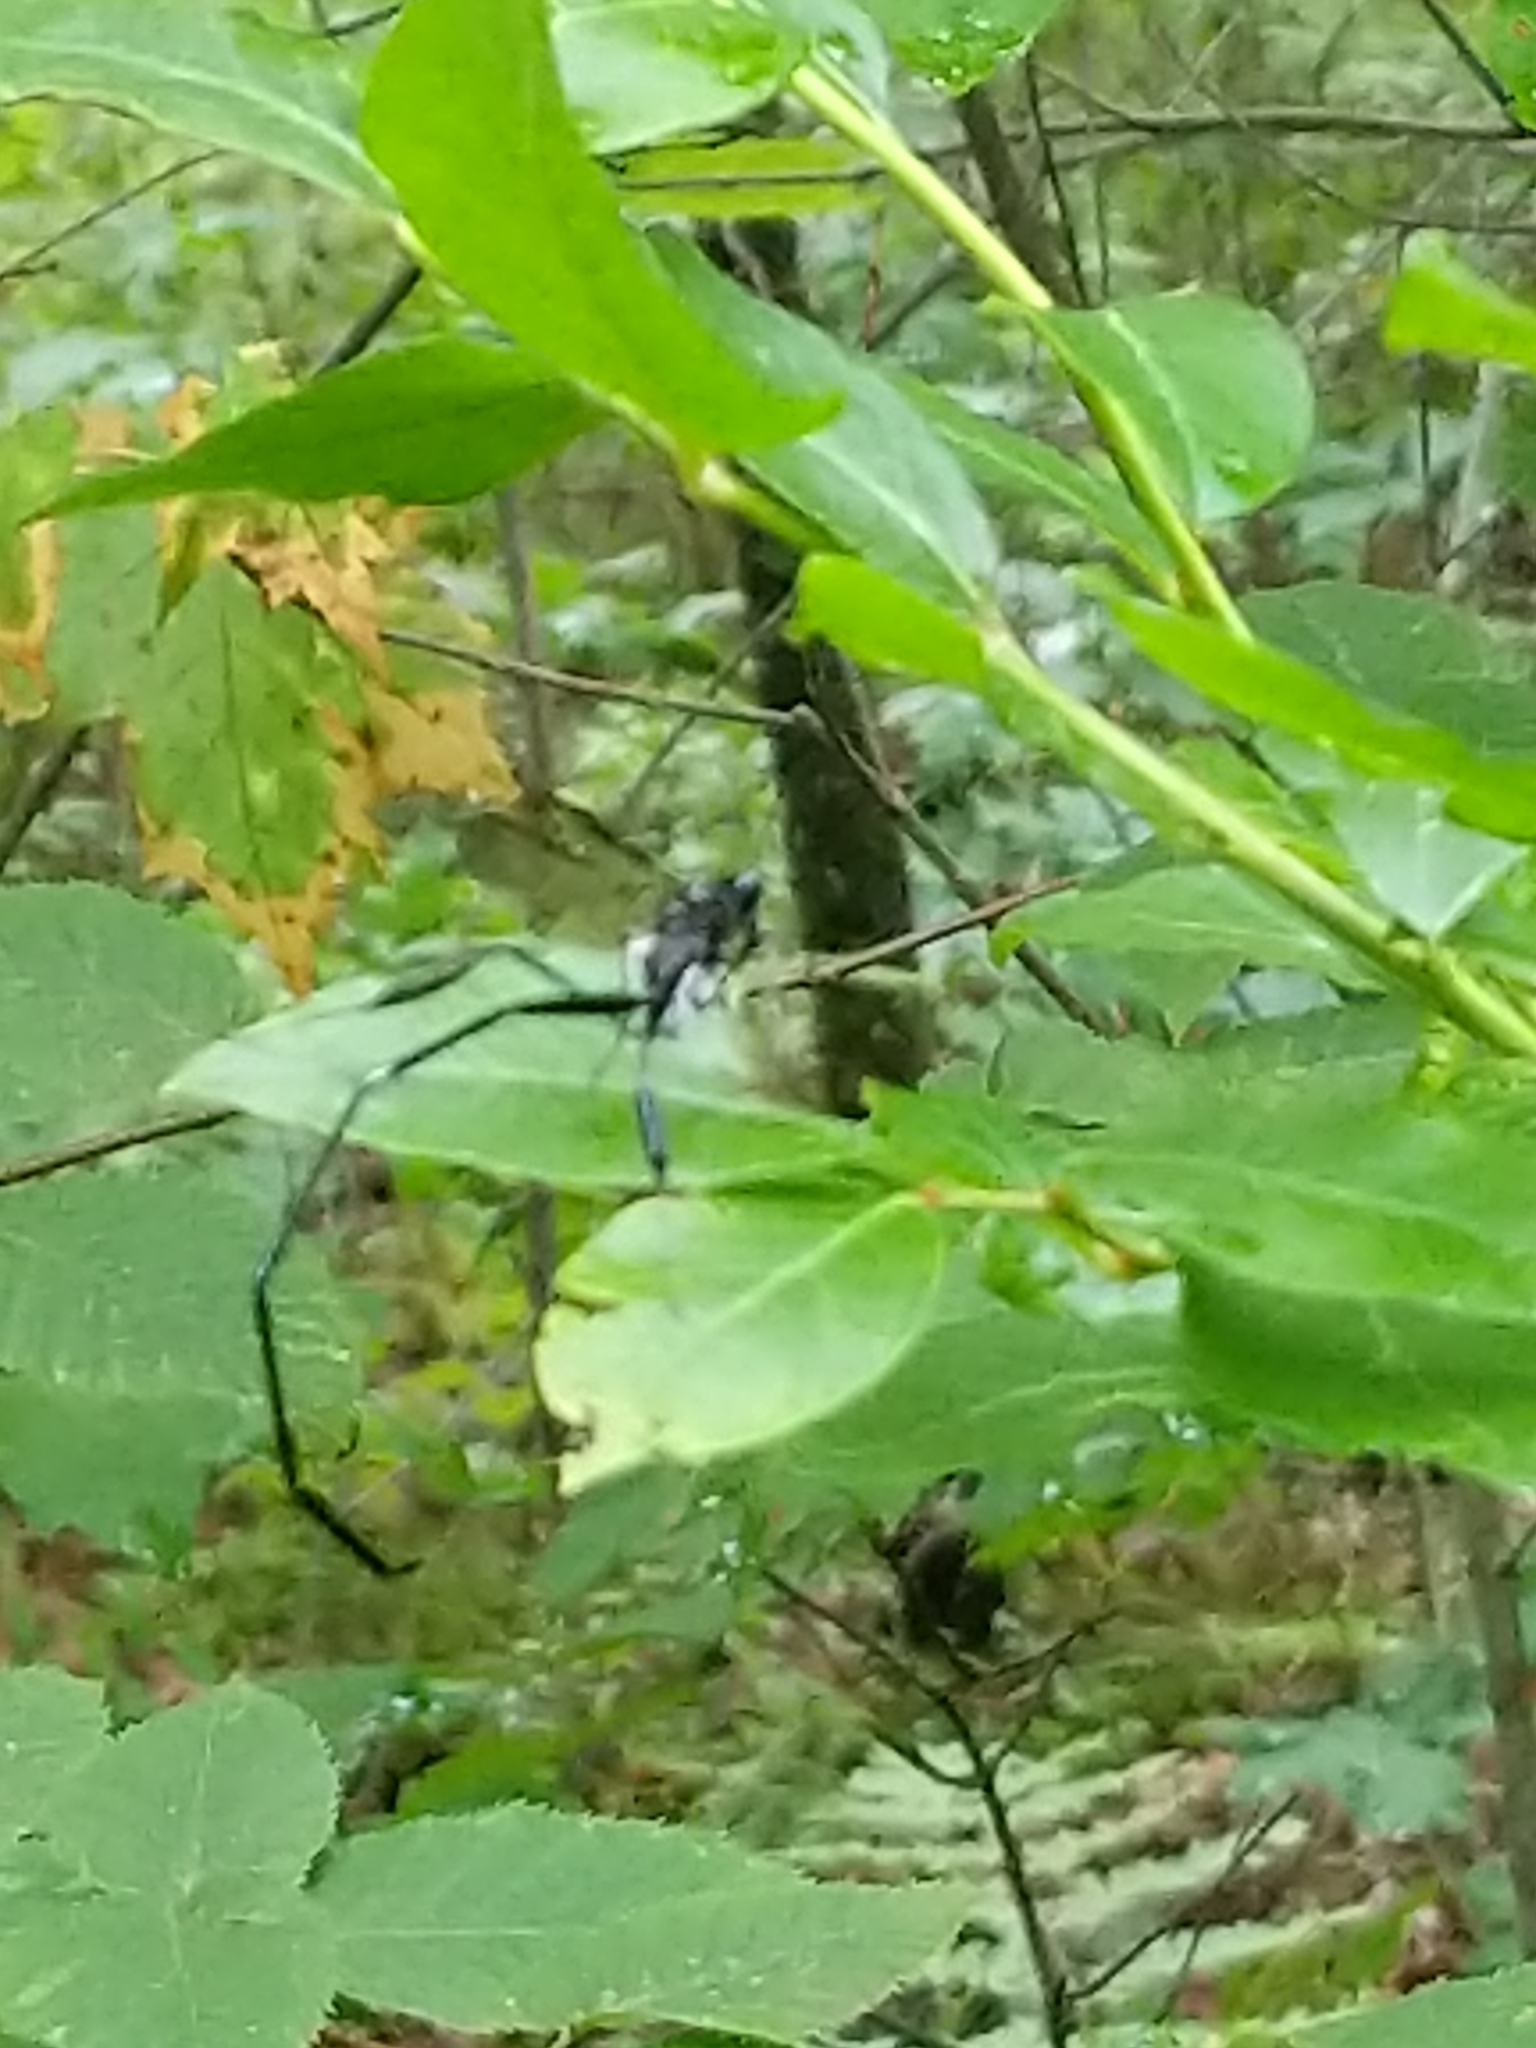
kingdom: Animalia
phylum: Arthropoda
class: Insecta
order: Hymenoptera
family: Pelecinidae
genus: Pelecinus
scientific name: Pelecinus polyturator
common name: American pelecinid wasp
